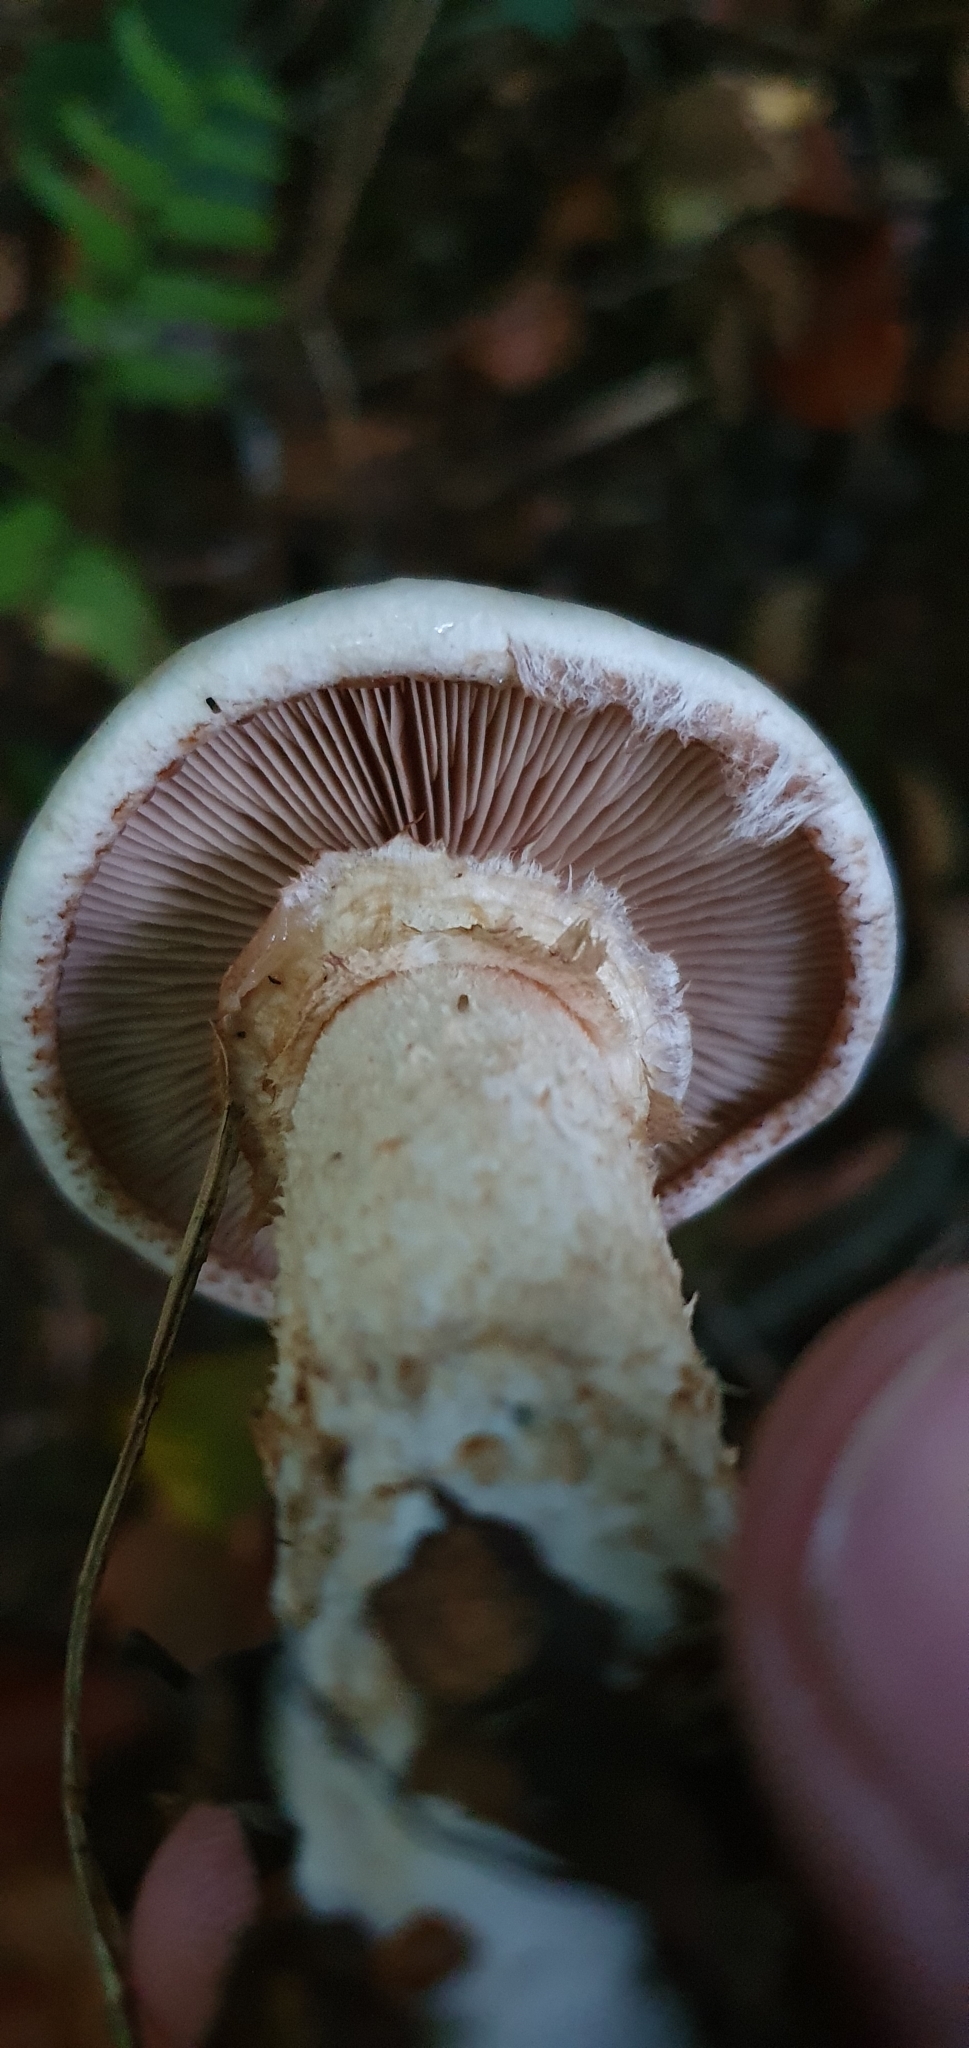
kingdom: Fungi
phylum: Basidiomycota
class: Agaricomycetes
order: Agaricales
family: Hymenogastraceae
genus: Hebeloma
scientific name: Hebeloma radicosum
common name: Rooting poisonpie
